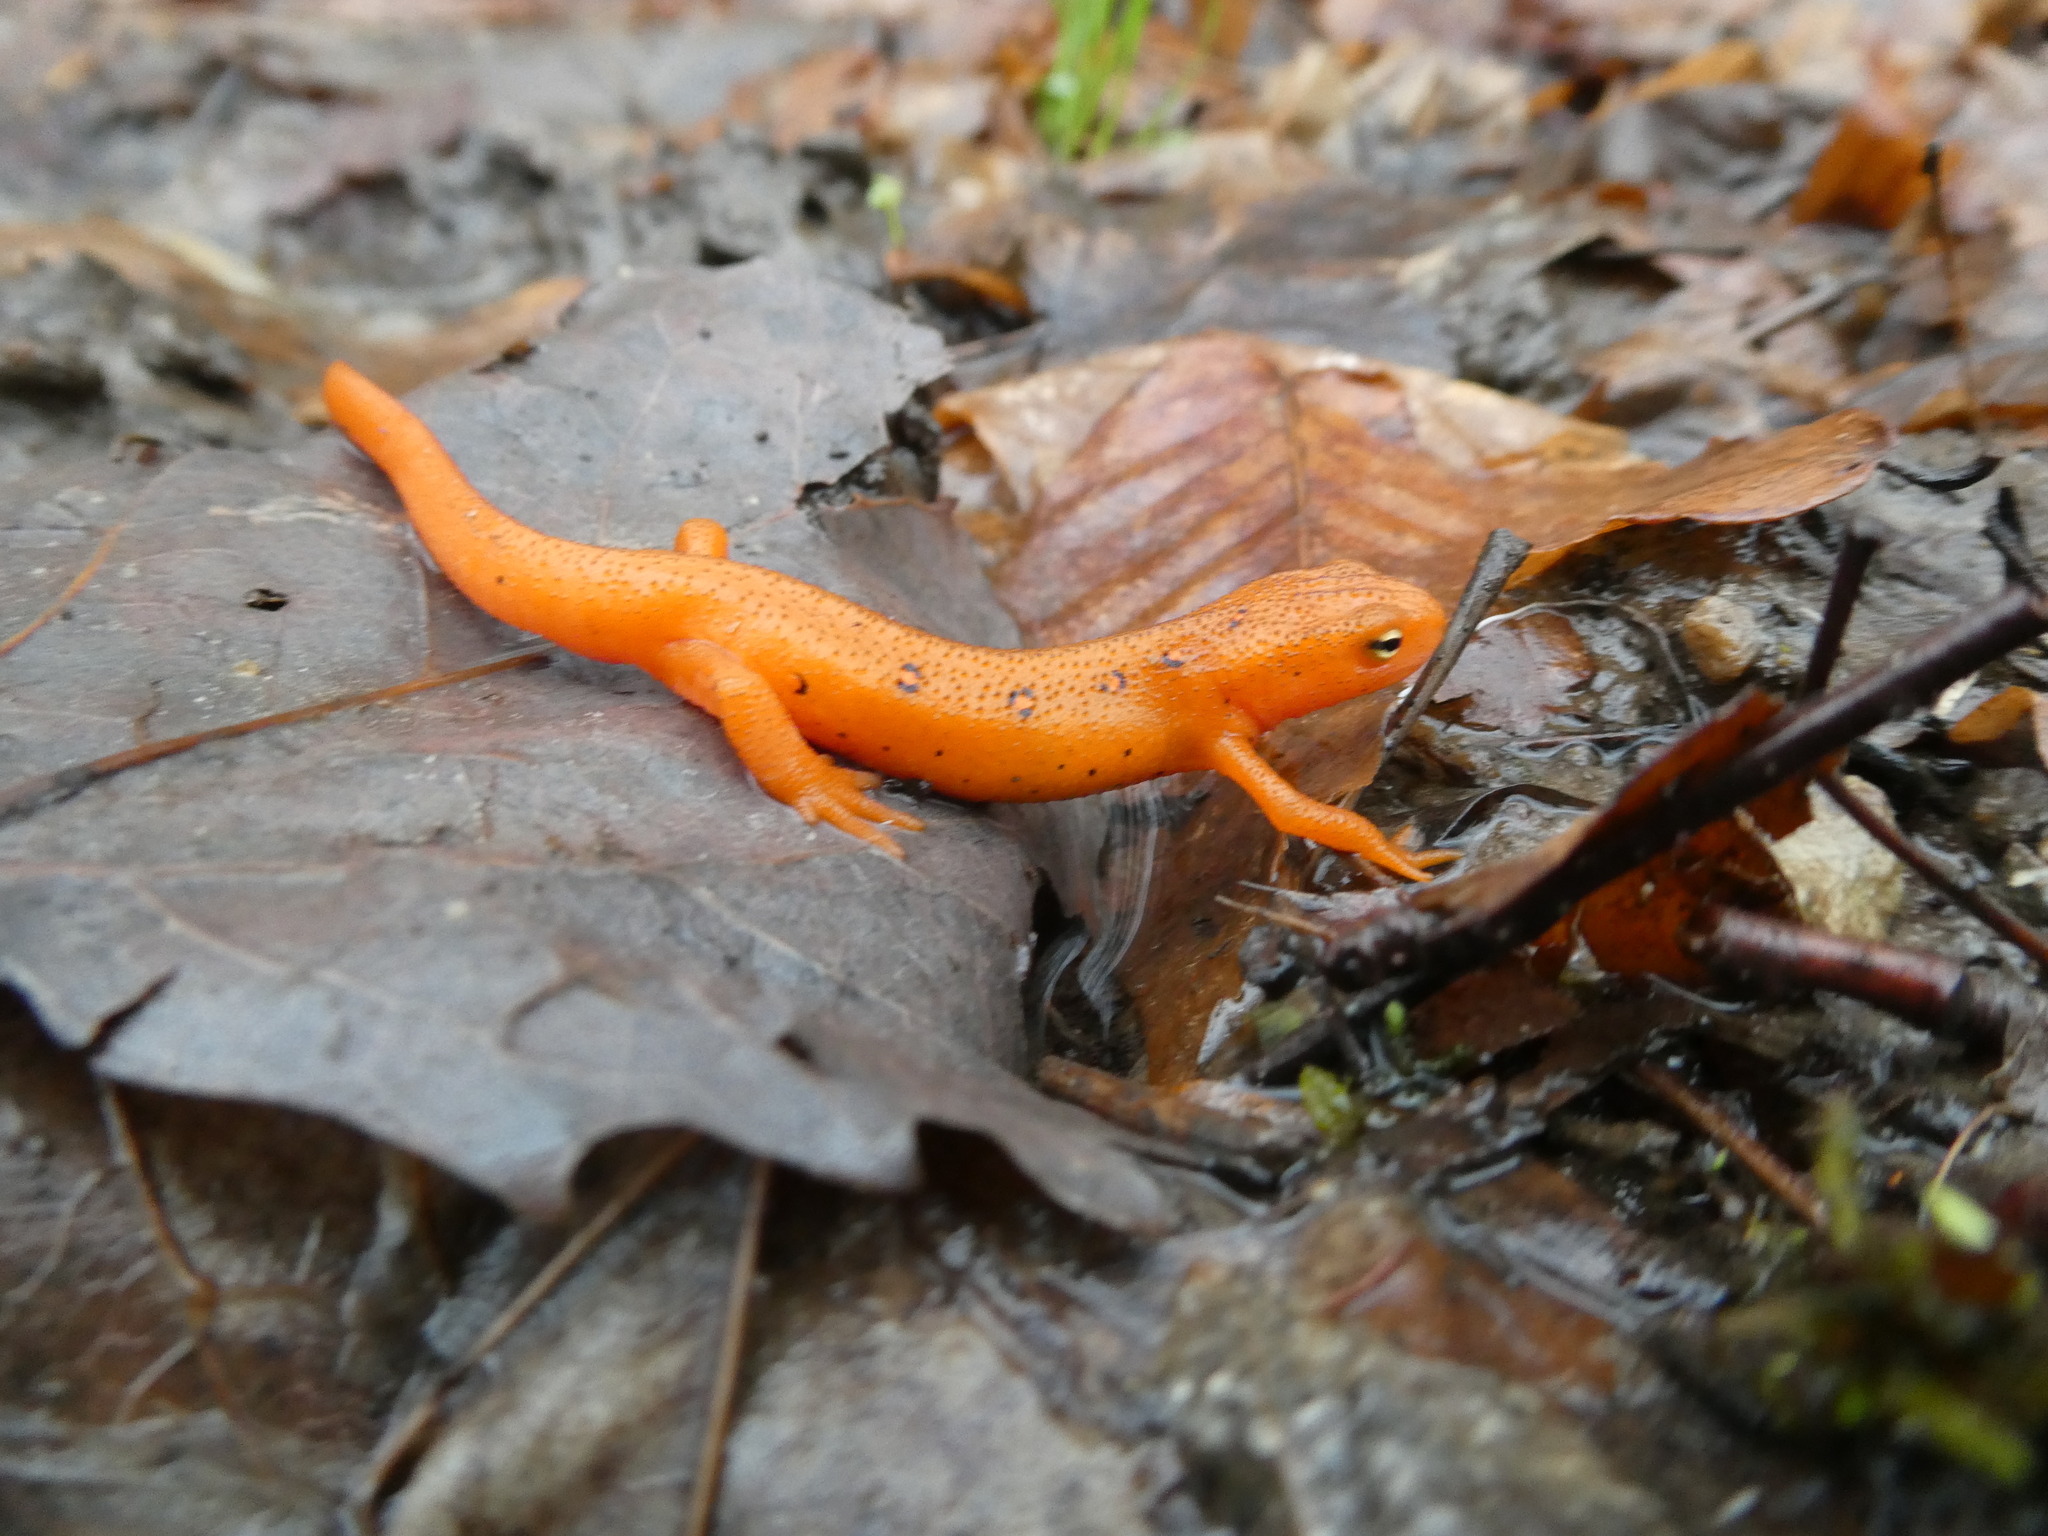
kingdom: Animalia
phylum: Chordata
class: Amphibia
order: Caudata
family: Salamandridae
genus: Notophthalmus
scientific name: Notophthalmus viridescens
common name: Eastern newt
